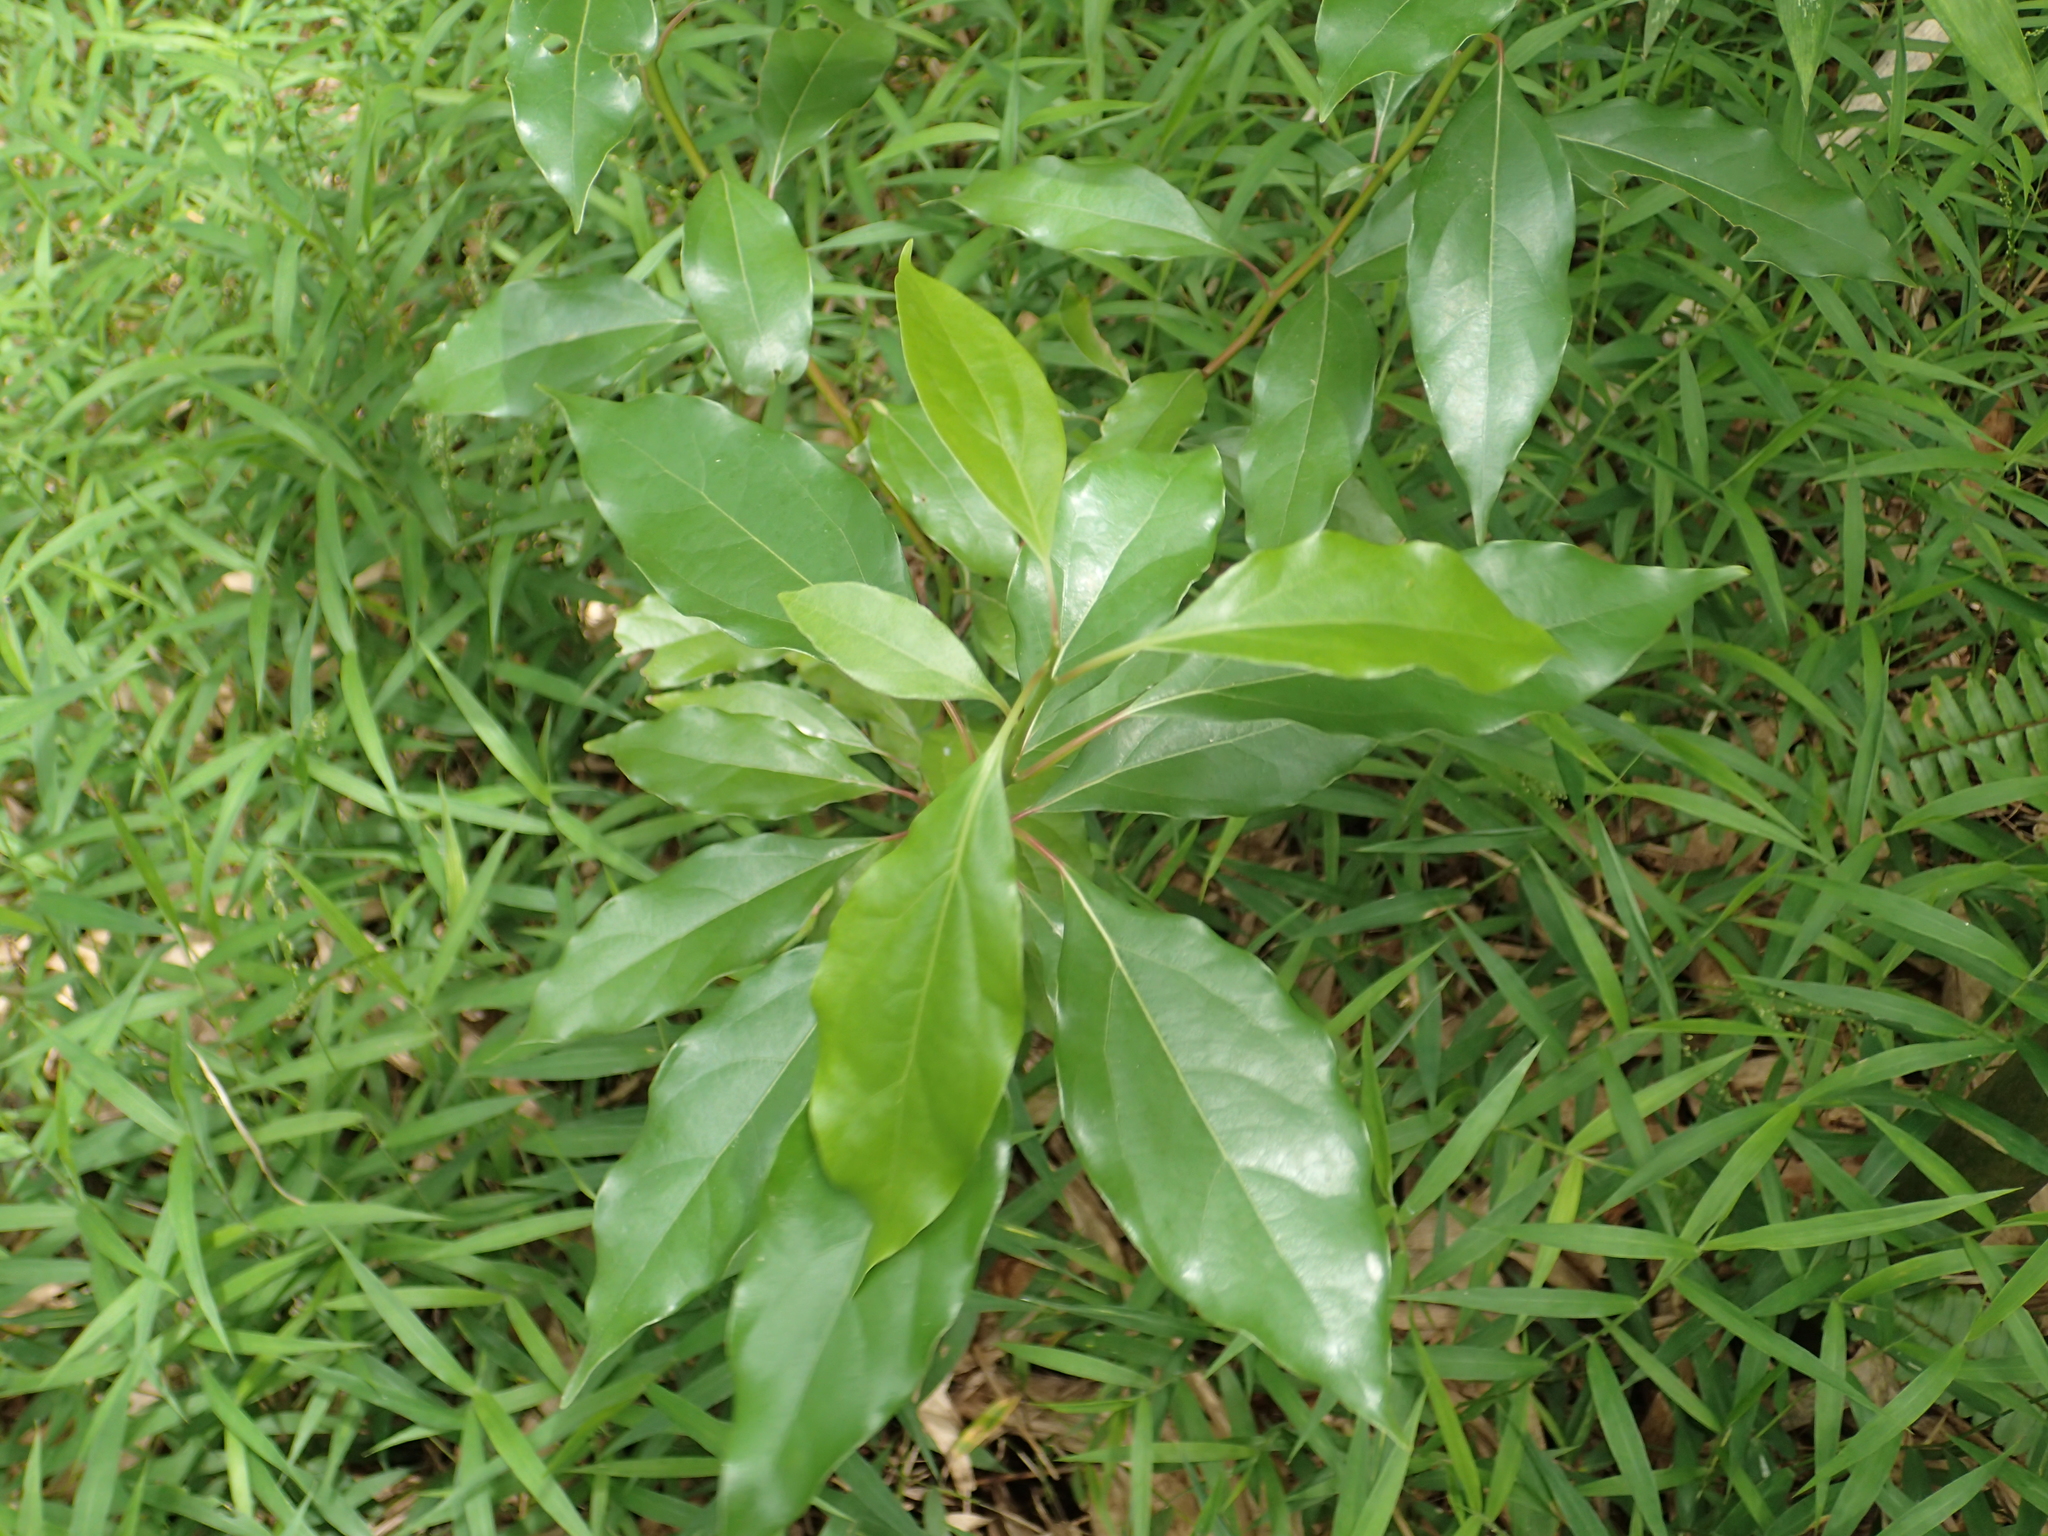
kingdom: Plantae
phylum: Tracheophyta
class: Magnoliopsida
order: Laurales
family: Lauraceae
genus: Cinnamomum
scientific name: Cinnamomum camphora
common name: Camphortree
